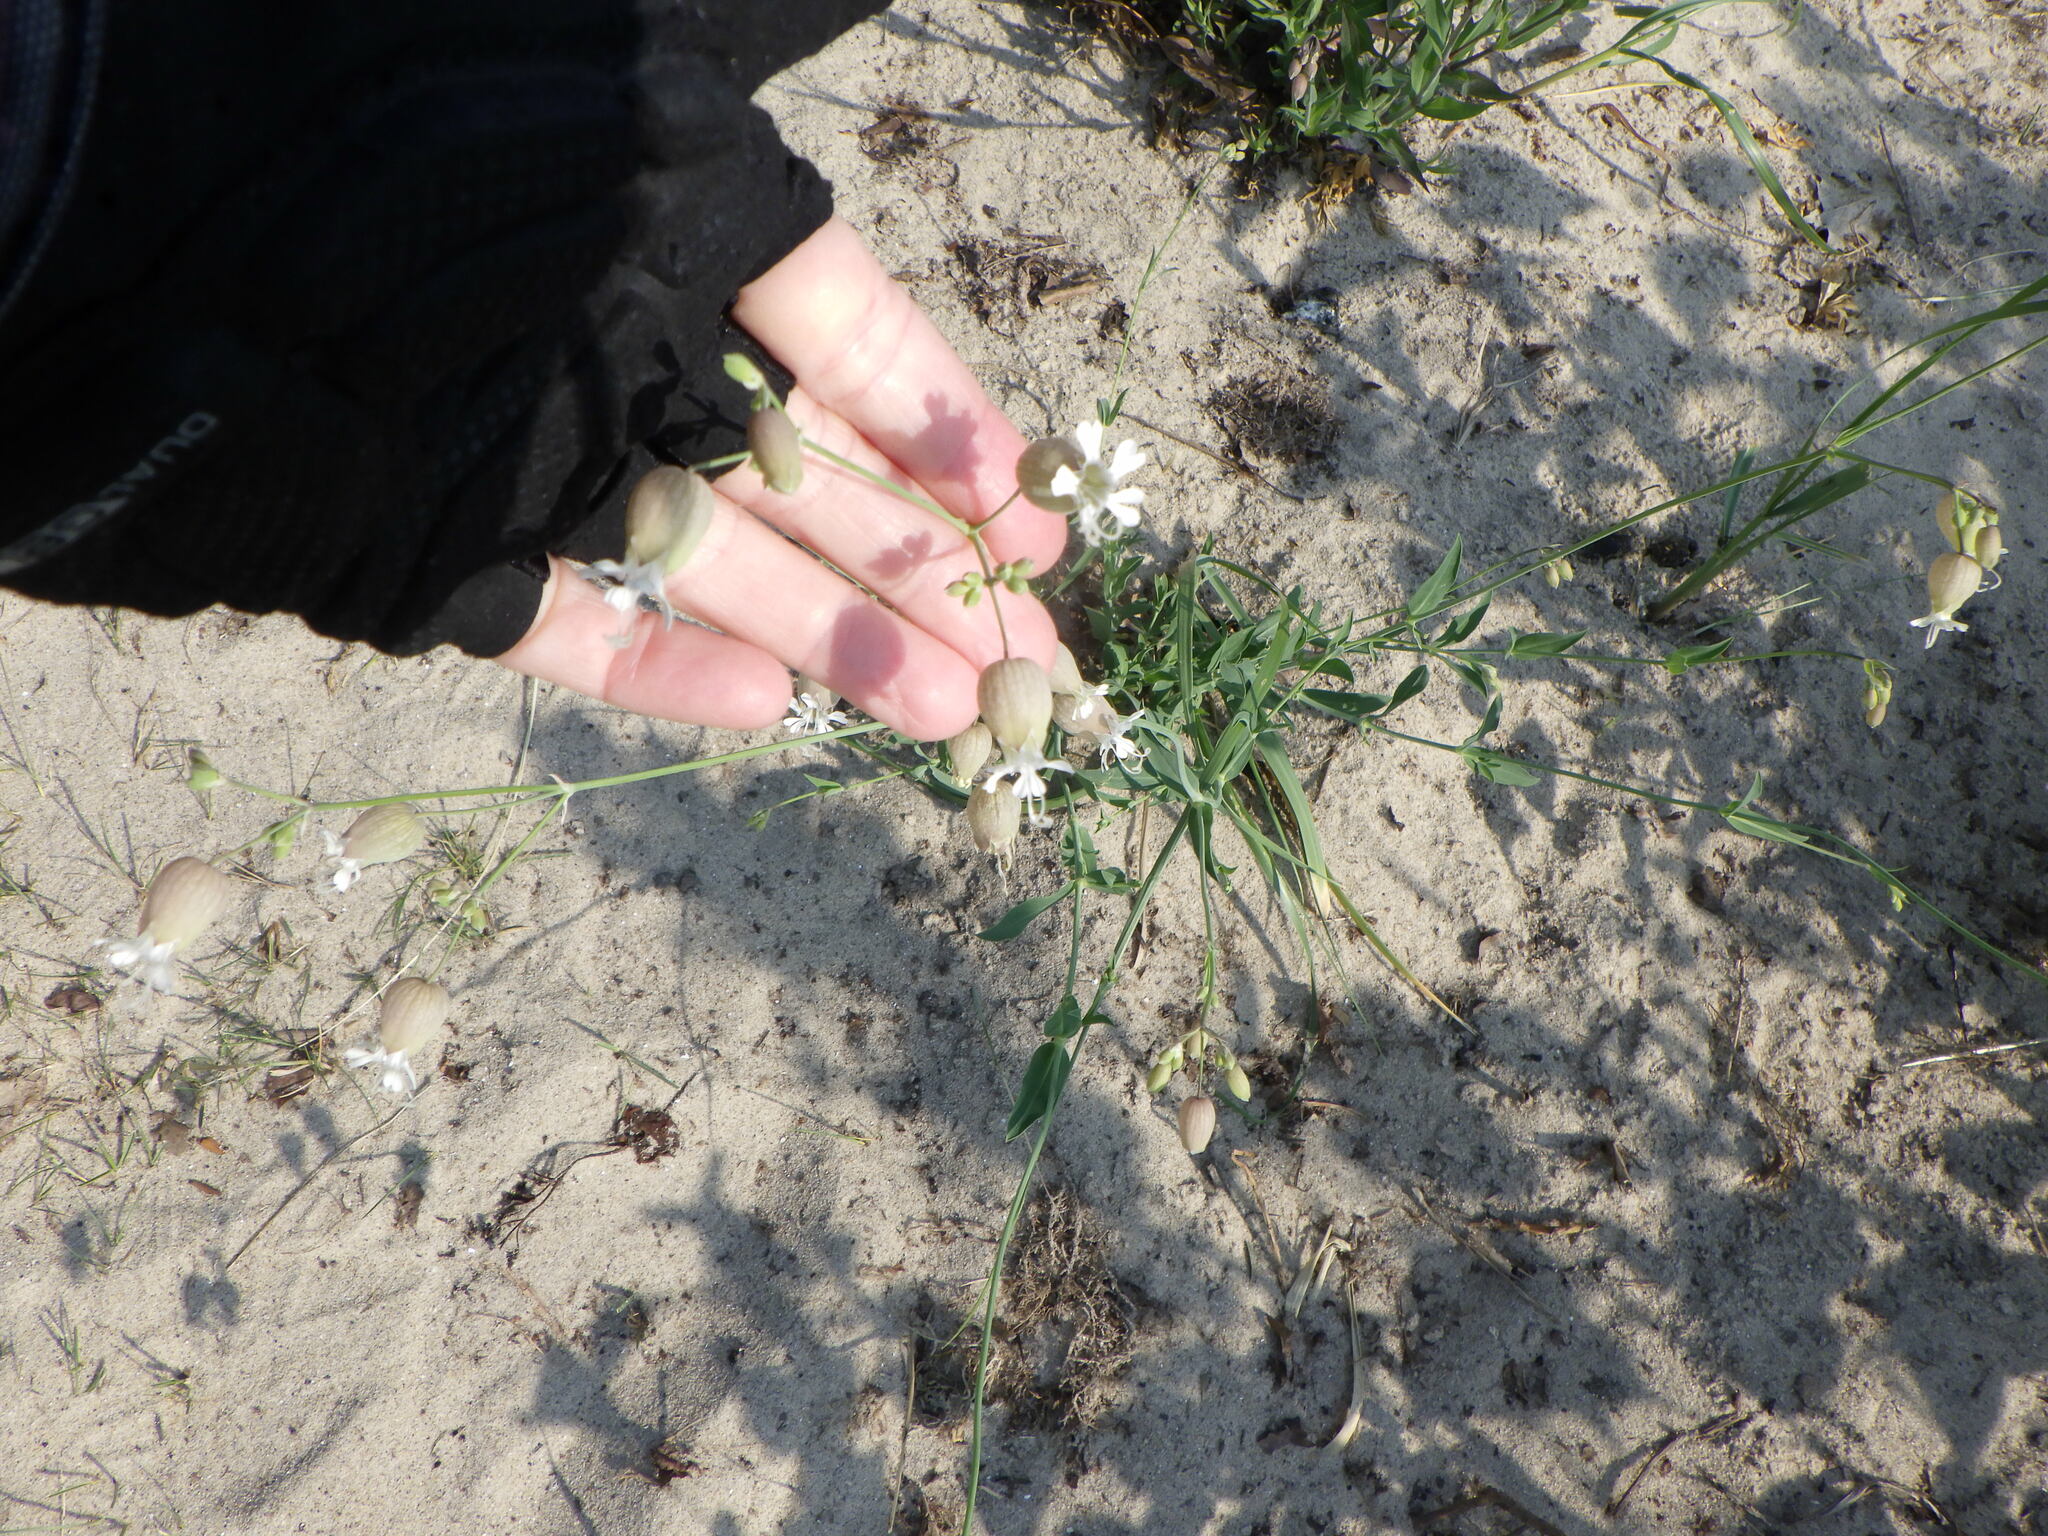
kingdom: Plantae
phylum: Tracheophyta
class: Magnoliopsida
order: Caryophyllales
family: Caryophyllaceae
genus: Silene
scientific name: Silene vulgaris
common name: Bladder campion
